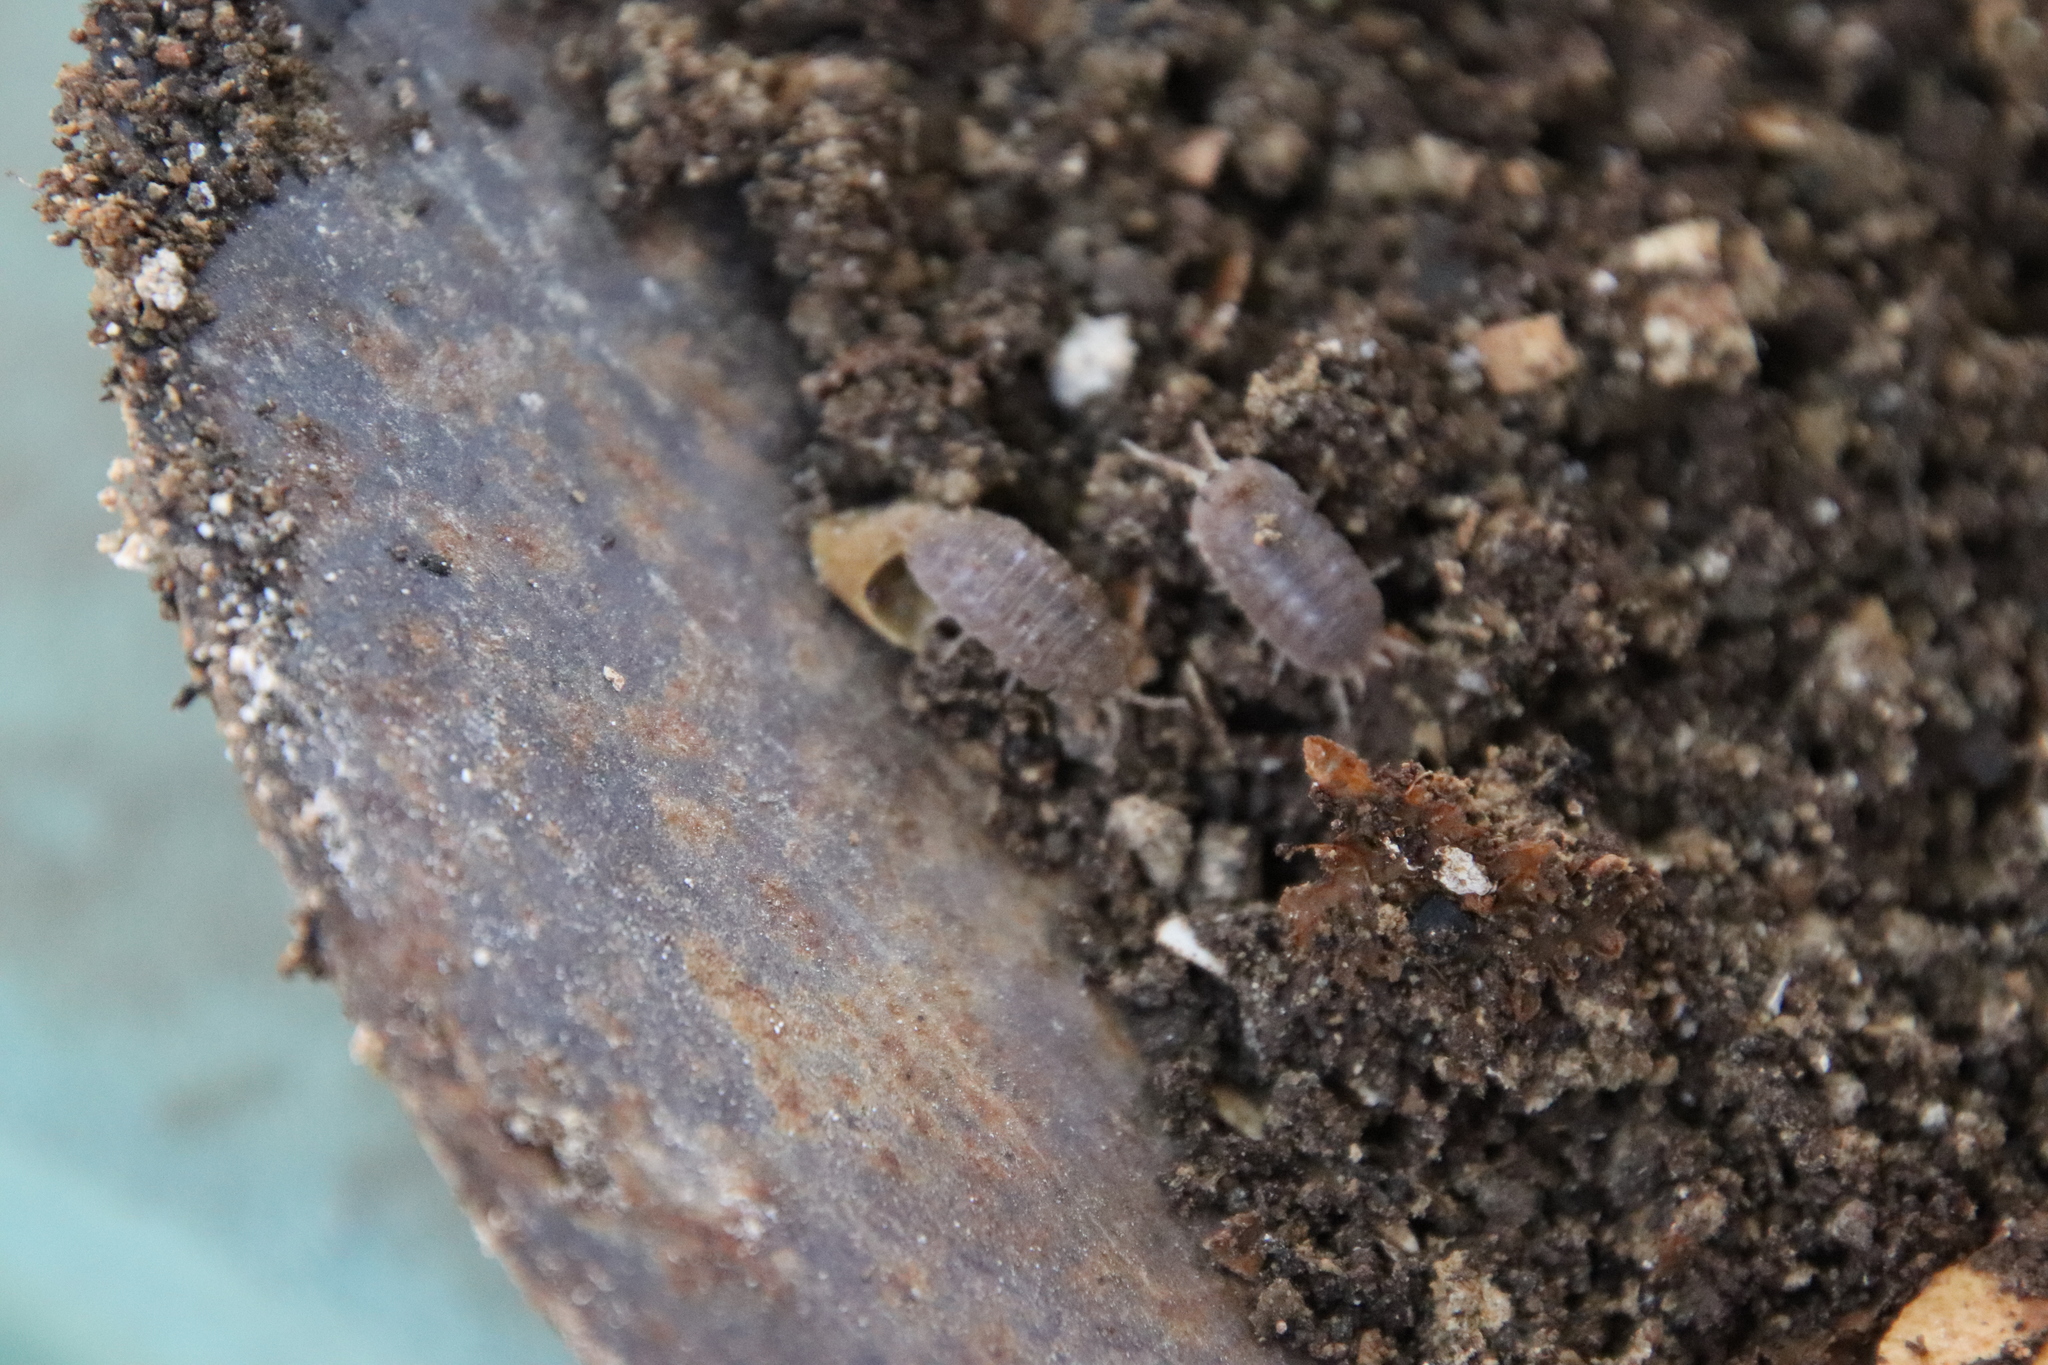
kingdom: Animalia
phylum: Arthropoda
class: Malacostraca
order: Isopoda
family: Porcellionidae
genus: Porcellio
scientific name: Porcellio laevis
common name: Swift woodlouse
